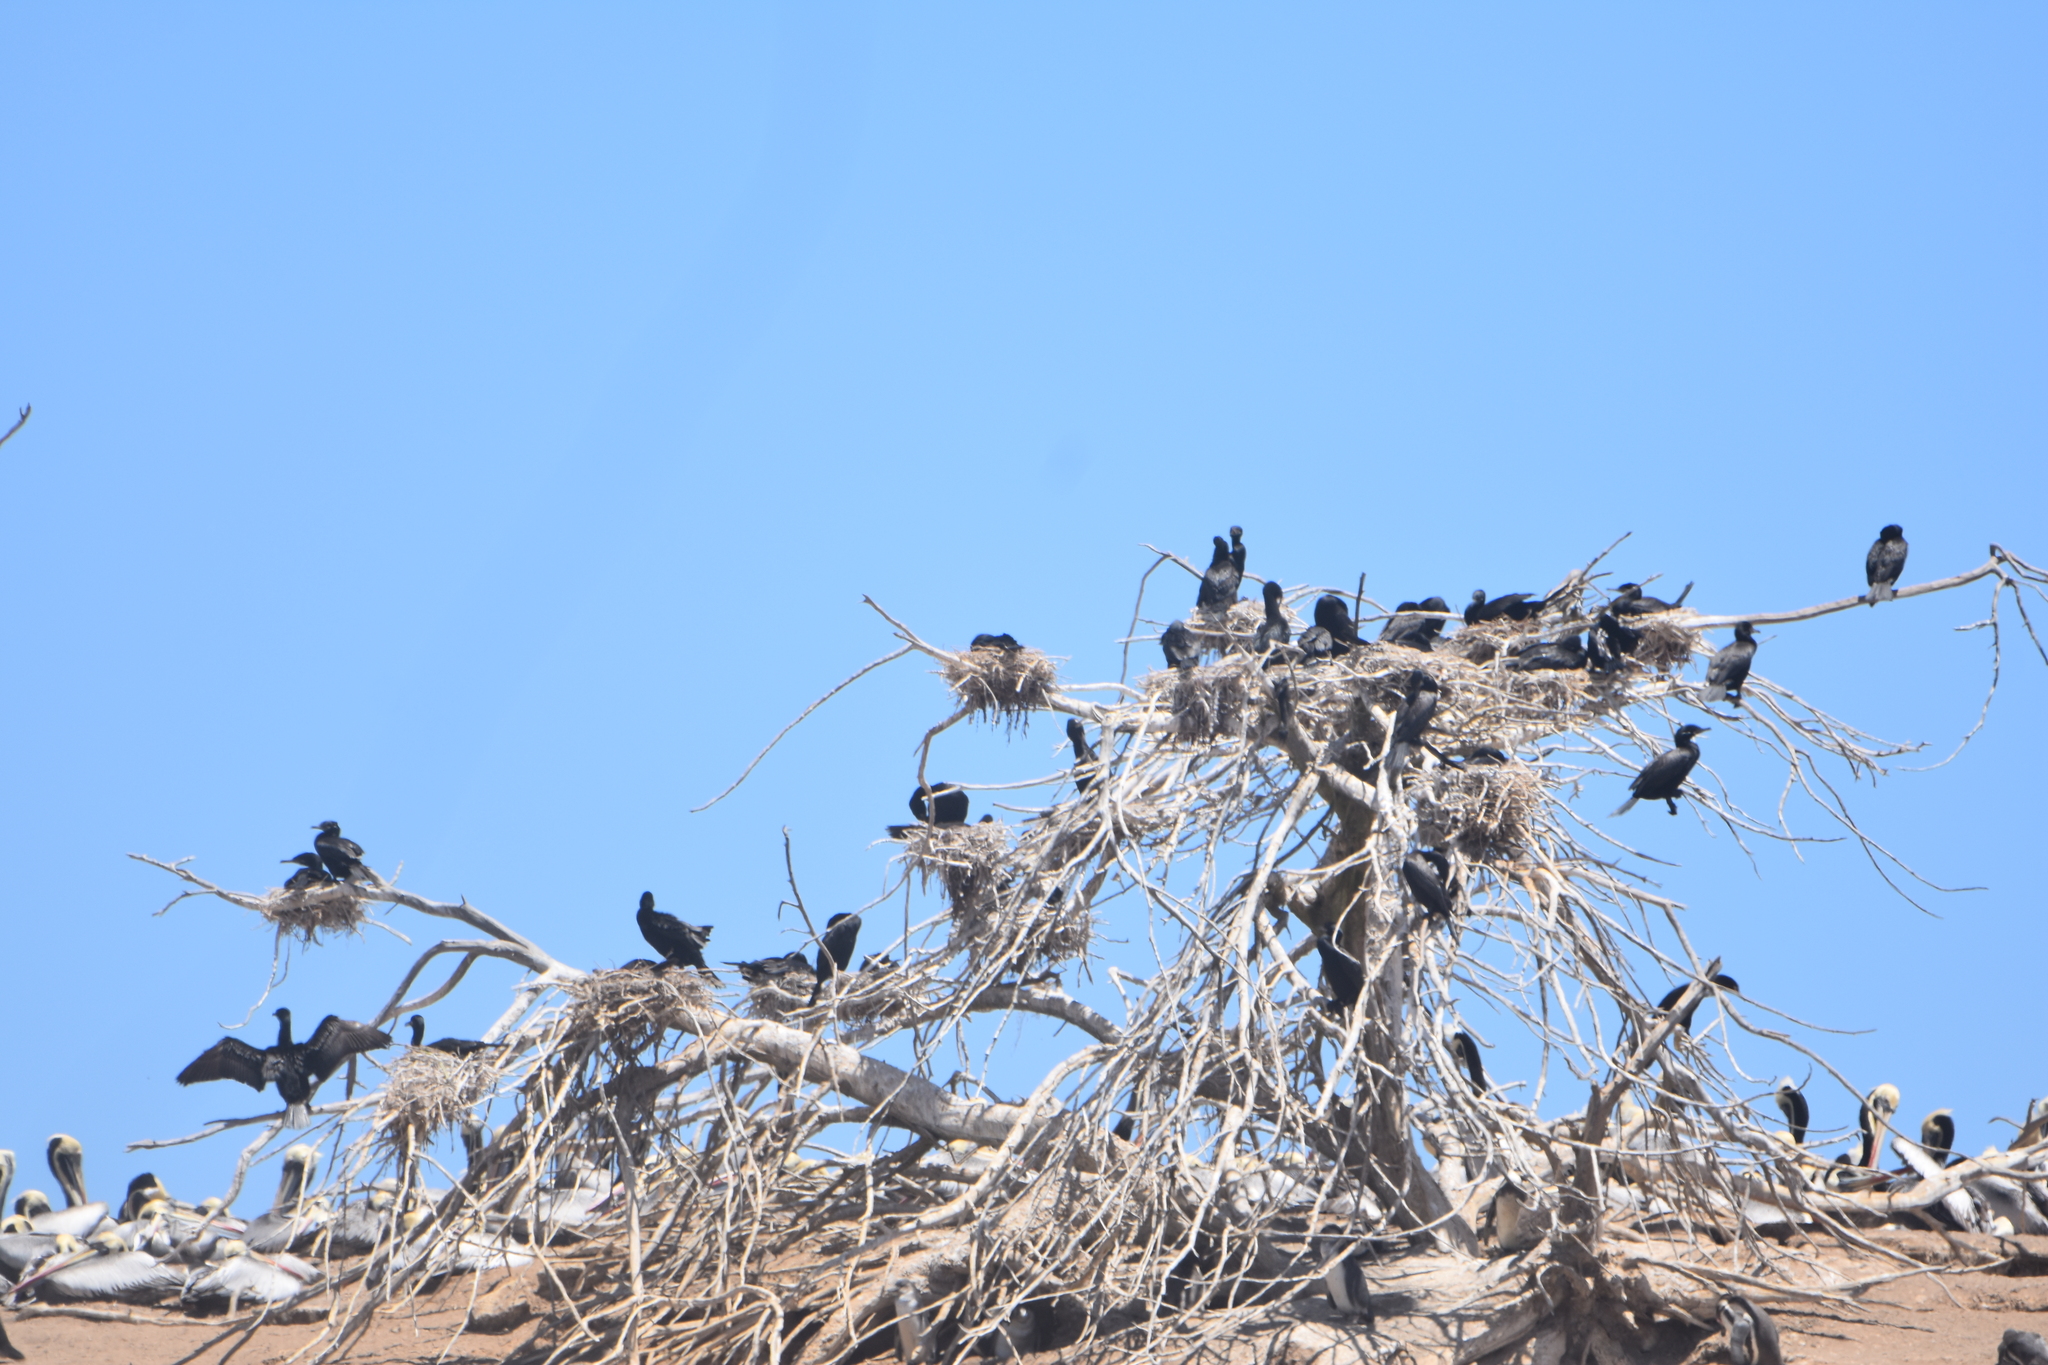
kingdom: Animalia
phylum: Chordata
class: Aves
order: Suliformes
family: Phalacrocoracidae
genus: Phalacrocorax
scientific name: Phalacrocorax brasilianus
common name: Neotropic cormorant
